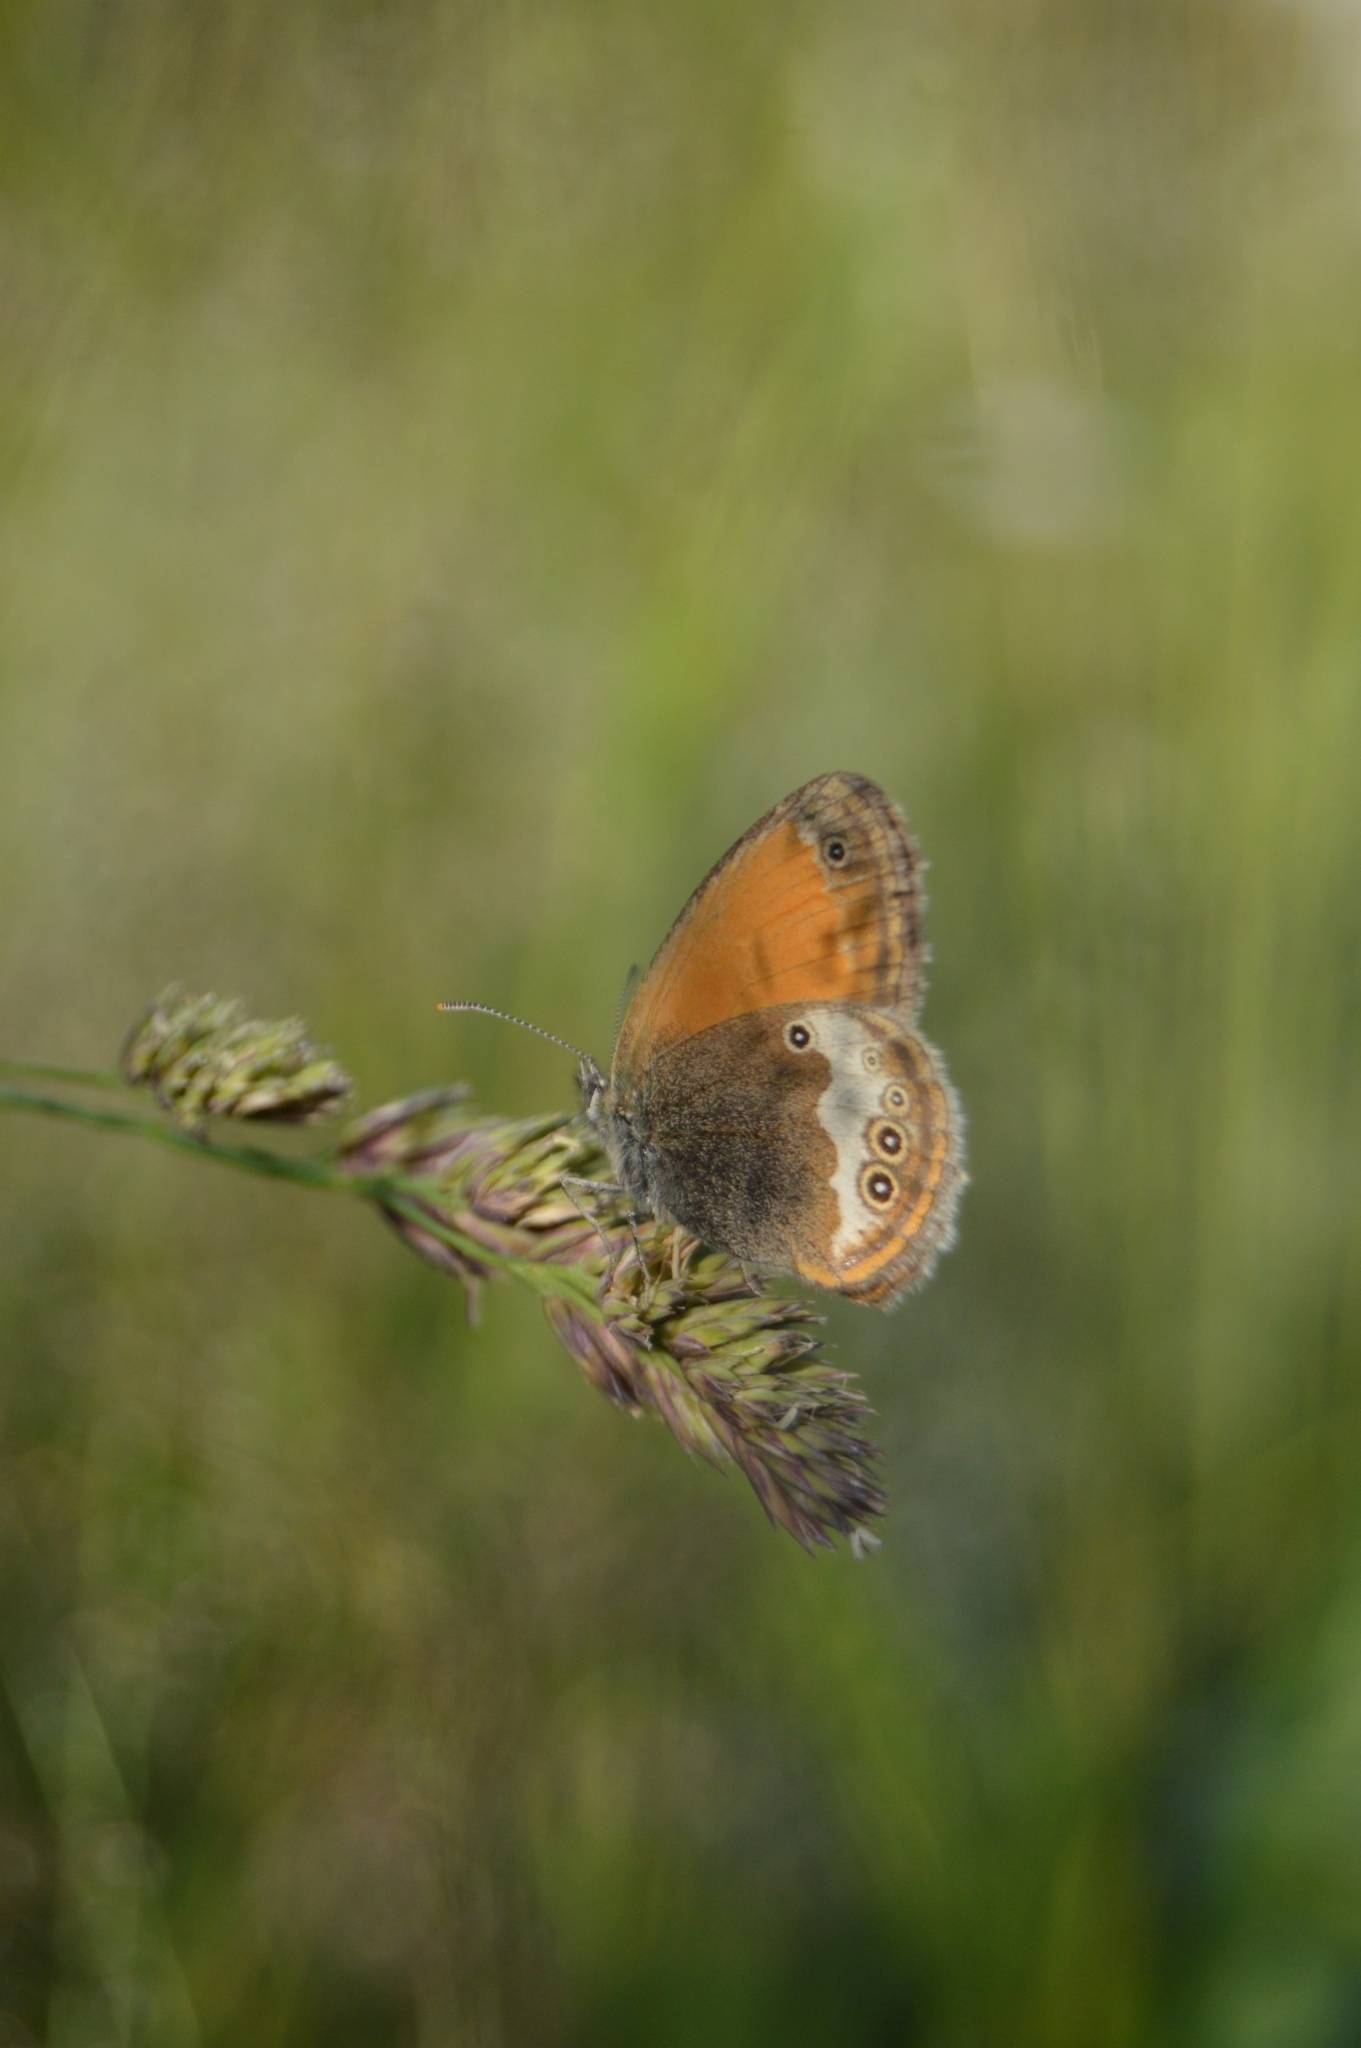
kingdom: Animalia
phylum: Arthropoda
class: Insecta
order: Lepidoptera
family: Nymphalidae
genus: Coenonympha
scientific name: Coenonympha arcania
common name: Pearly heath
